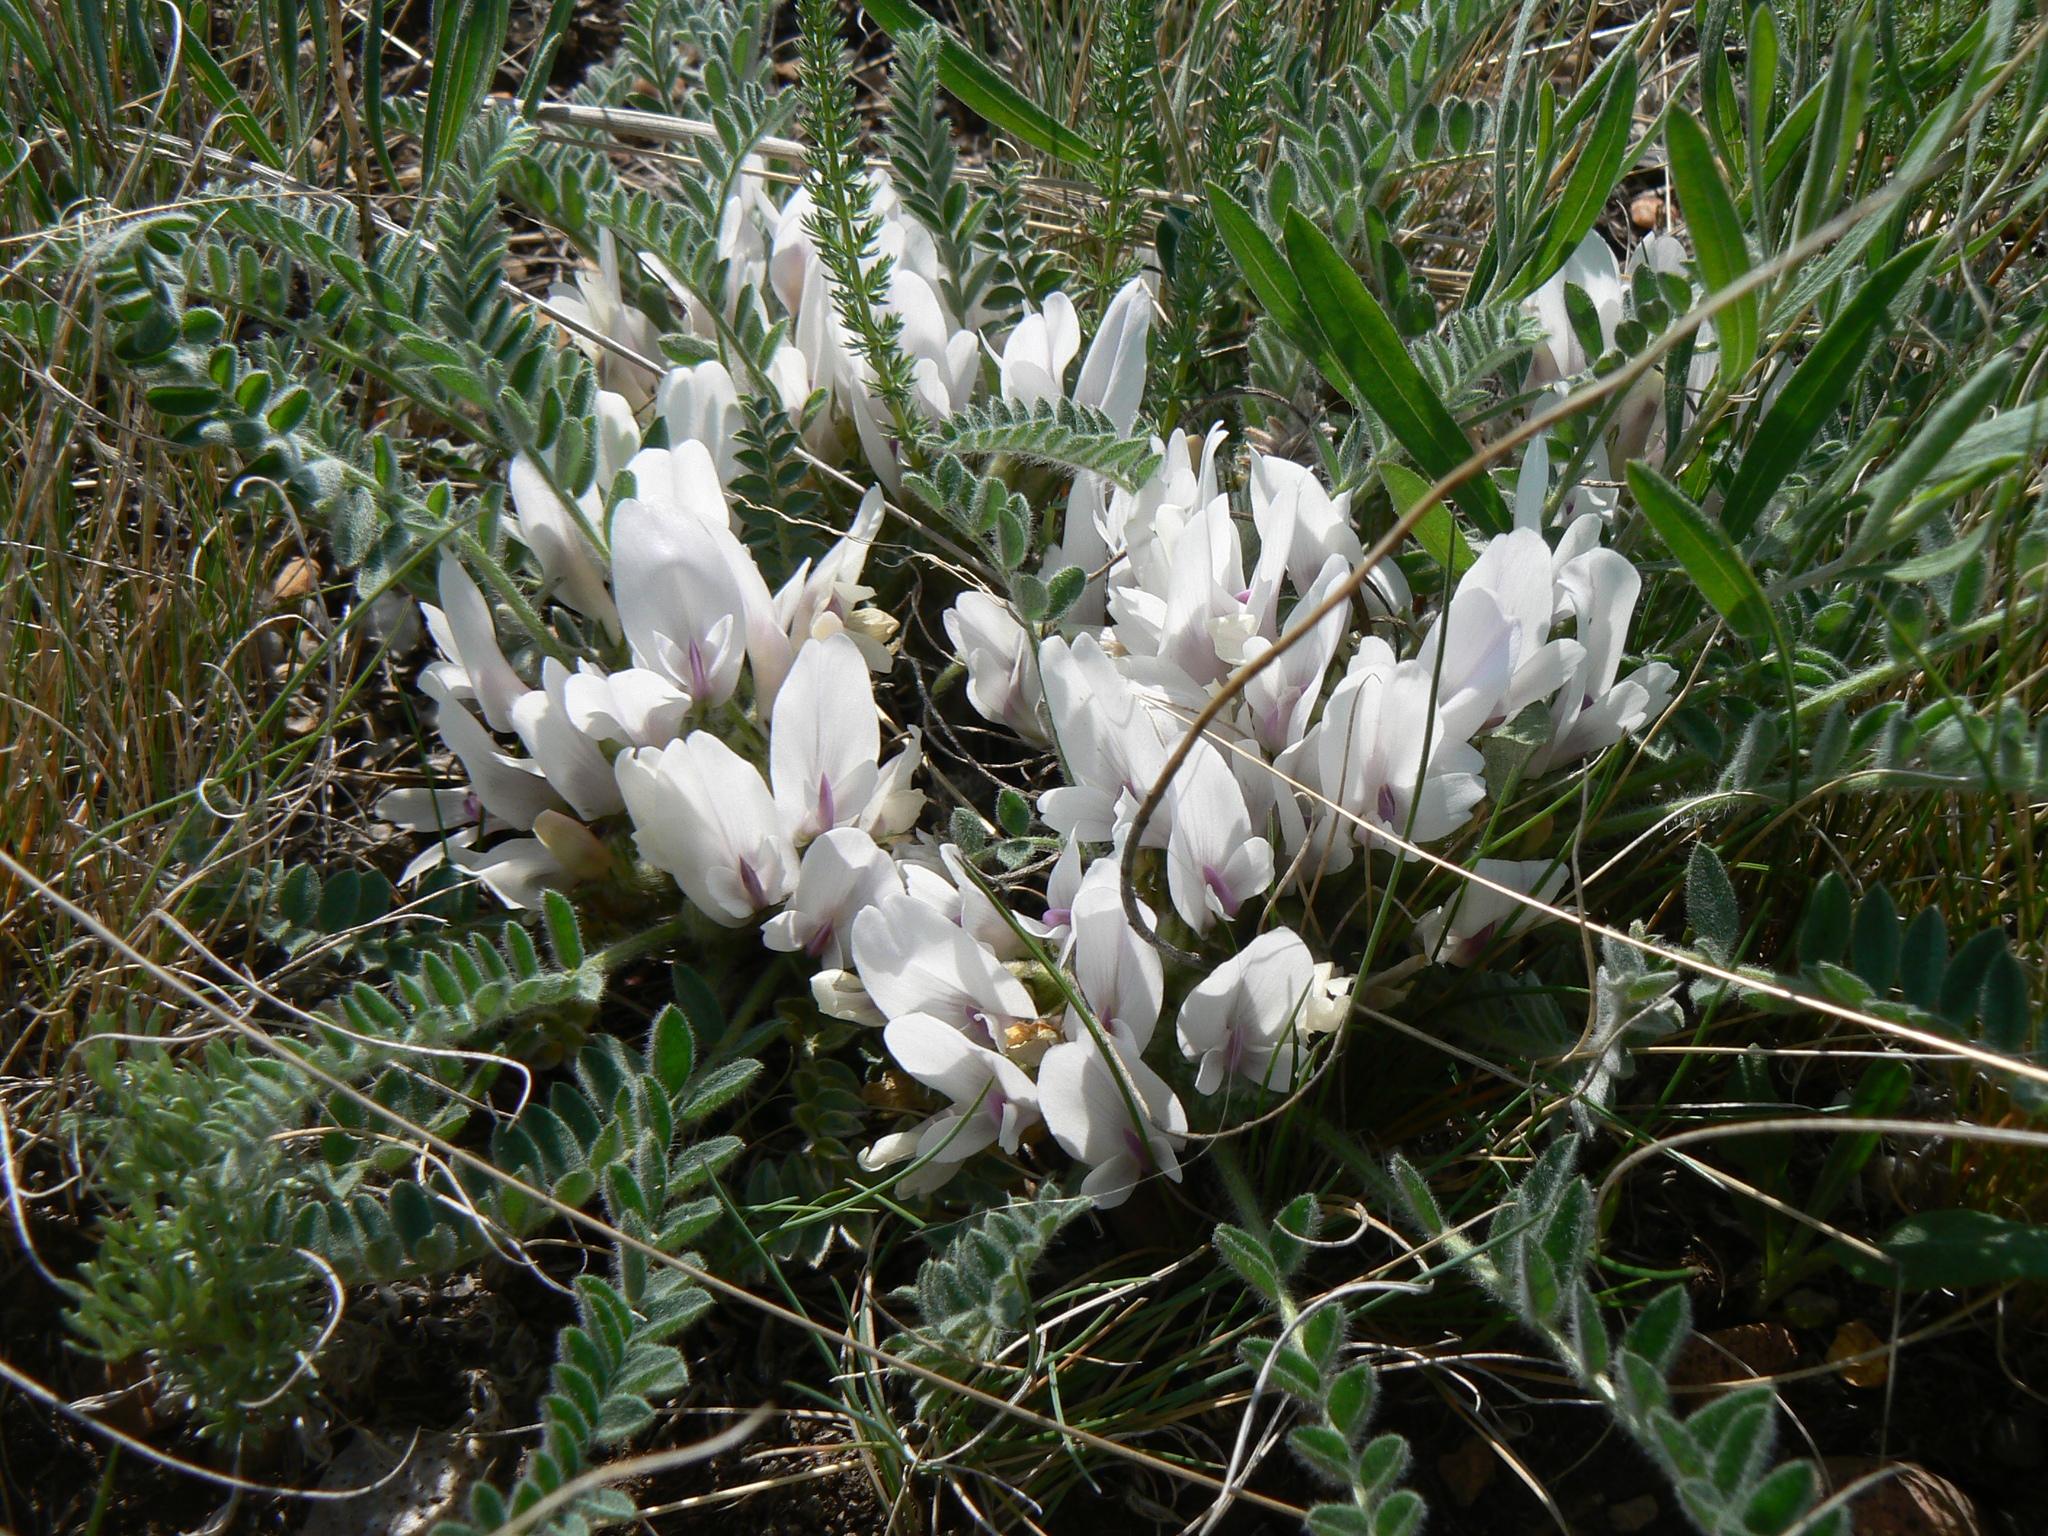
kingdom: Plantae
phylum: Tracheophyta
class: Magnoliopsida
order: Fabales
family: Fabaceae
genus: Astragalus
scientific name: Astragalus testiculatus
